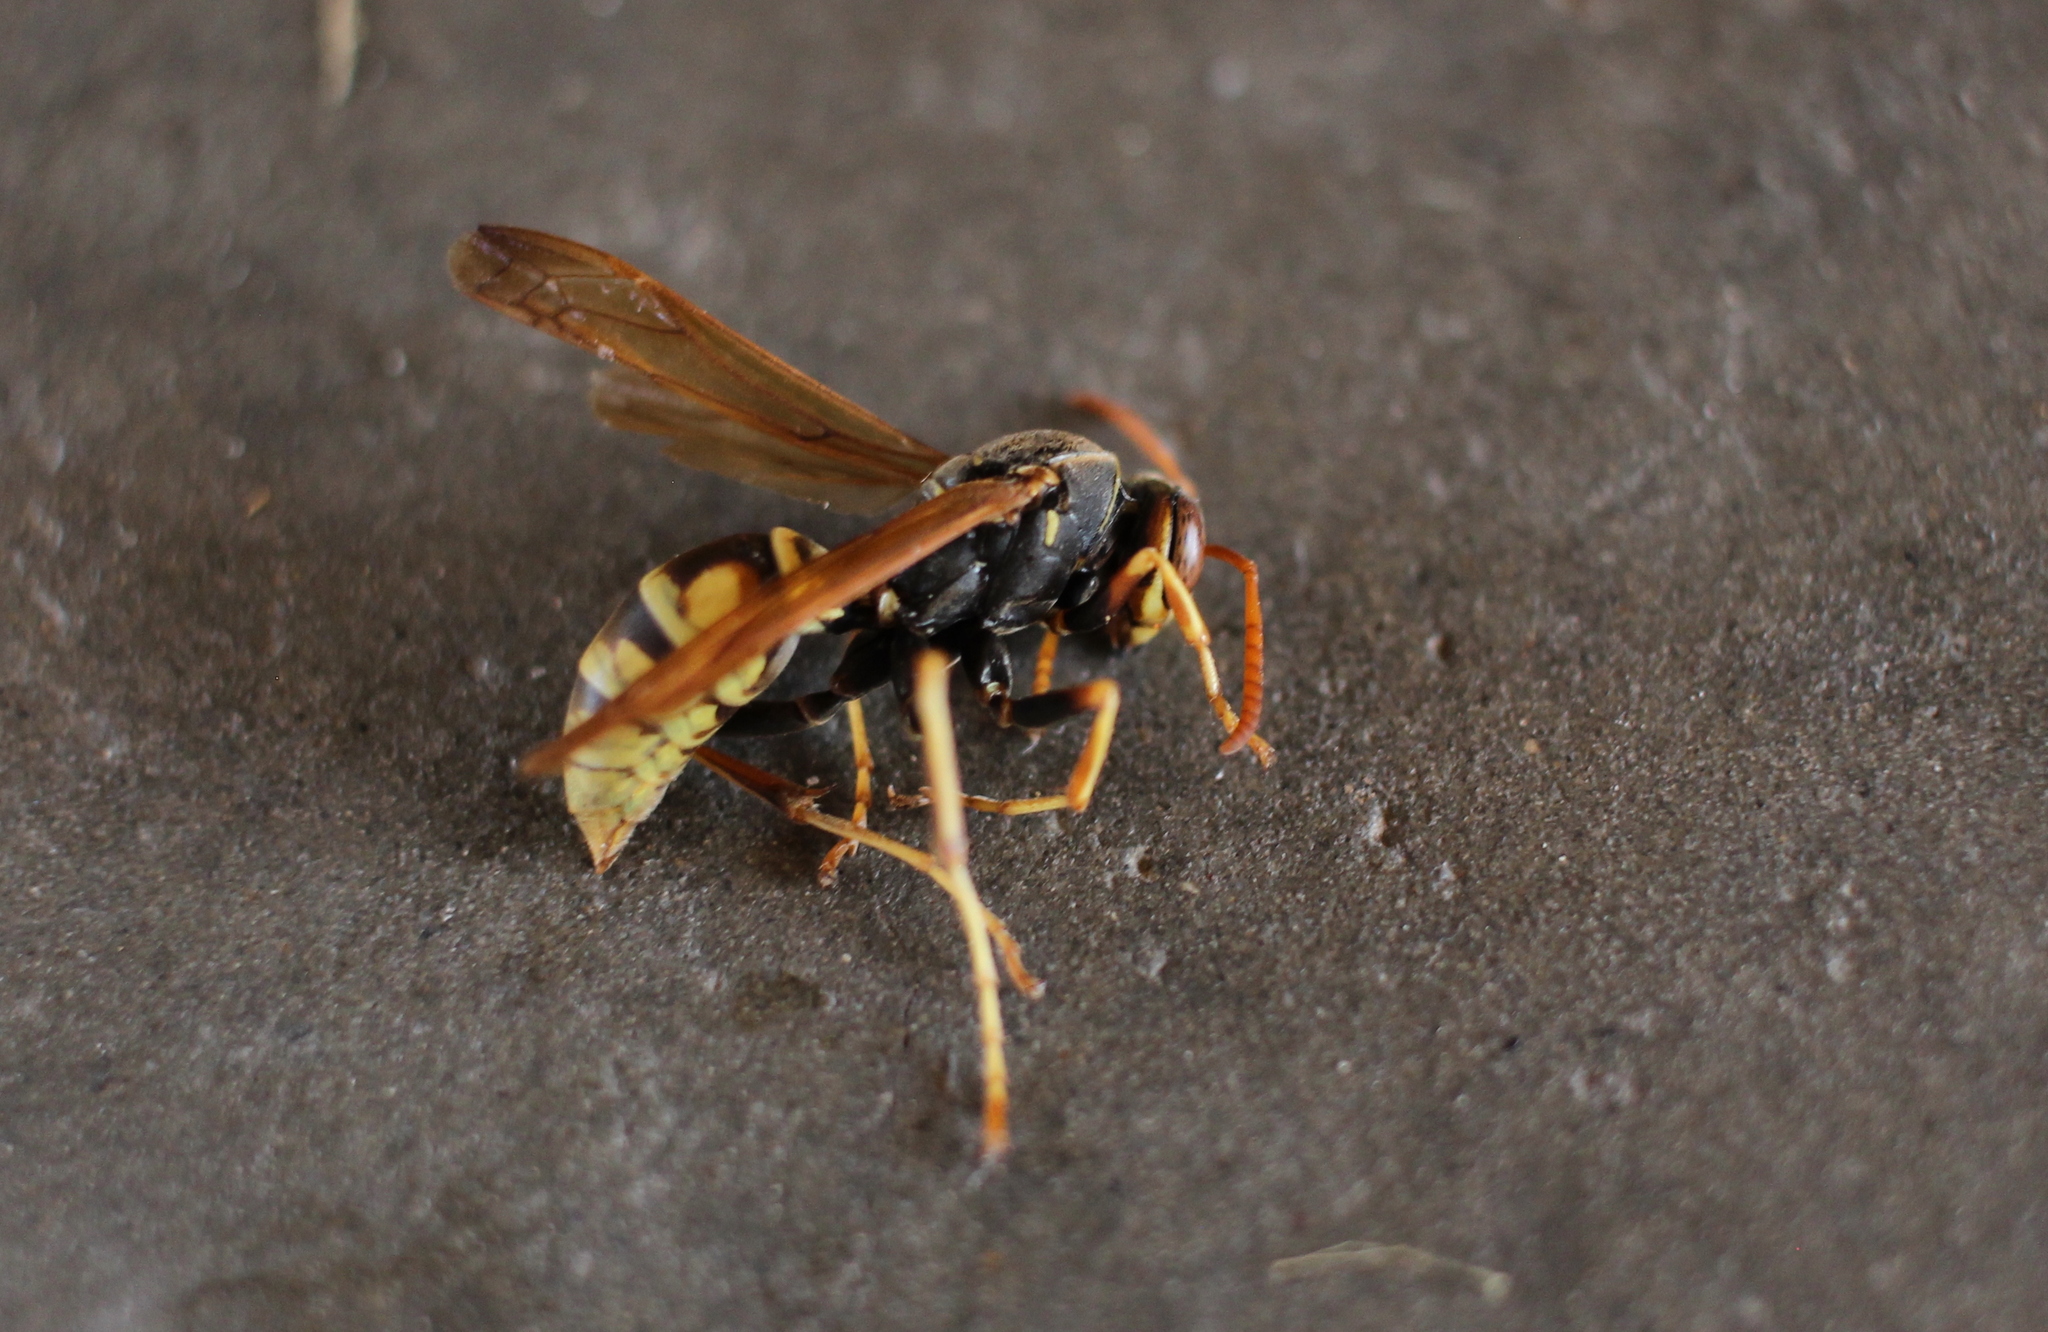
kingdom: Animalia
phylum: Arthropoda
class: Insecta
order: Hymenoptera
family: Eumenidae
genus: Polistes
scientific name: Polistes aurifer
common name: Paper wasp
